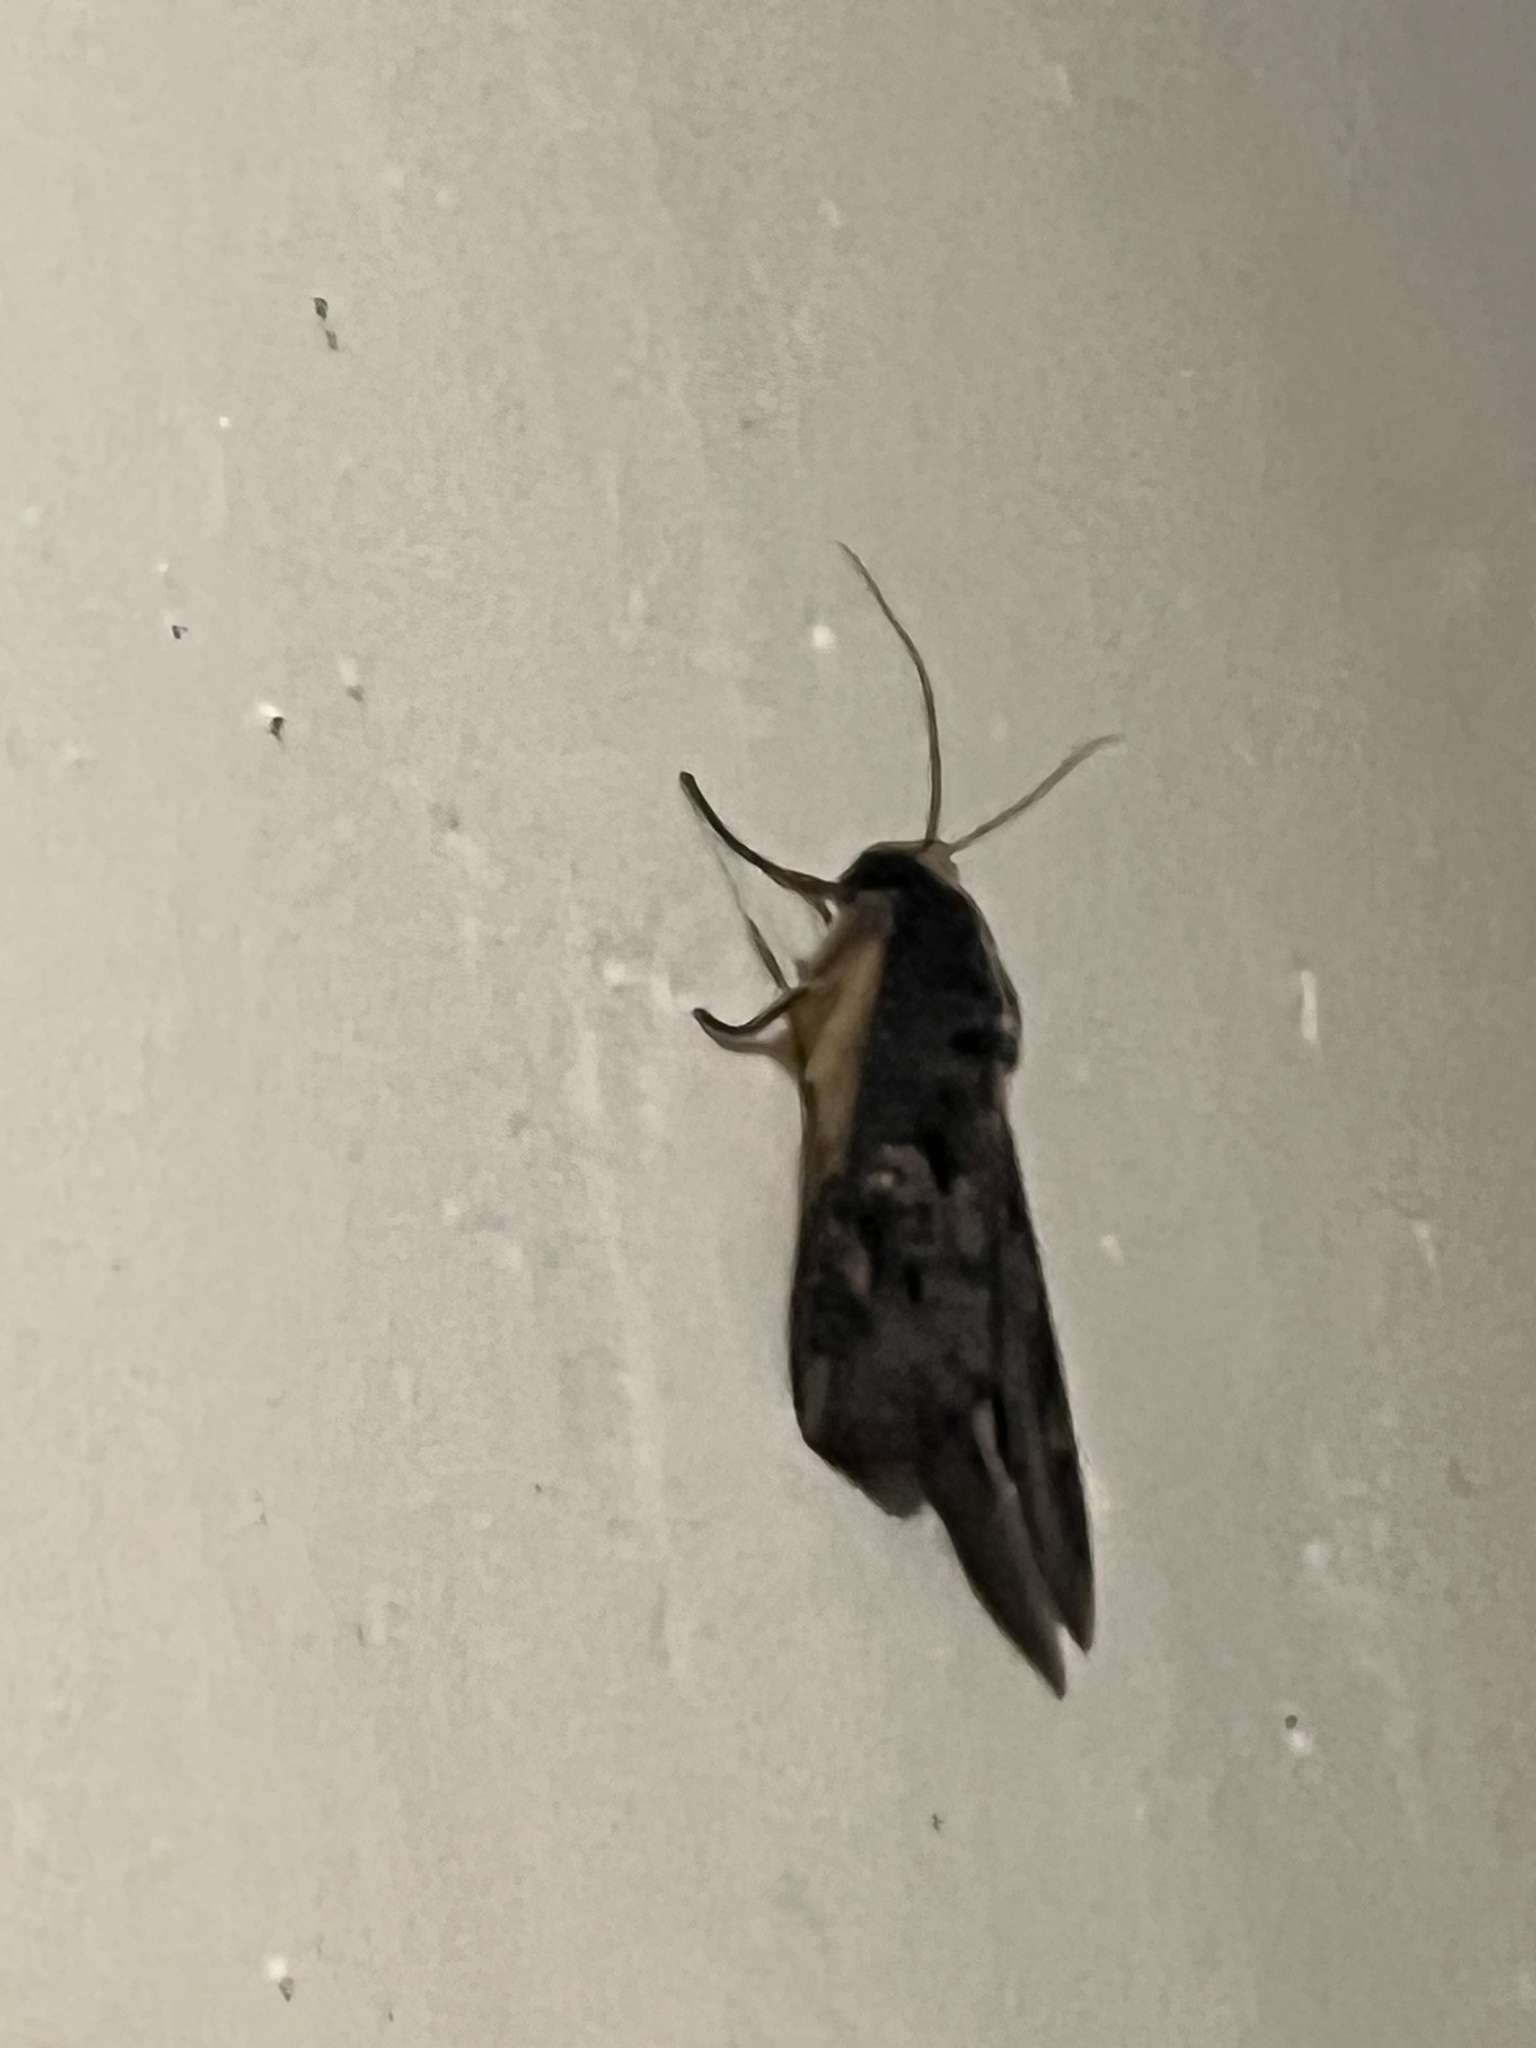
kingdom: Animalia
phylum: Arthropoda
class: Insecta
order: Lepidoptera
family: Erebidae
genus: Sphingomorpha
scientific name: Sphingomorpha chlorea
